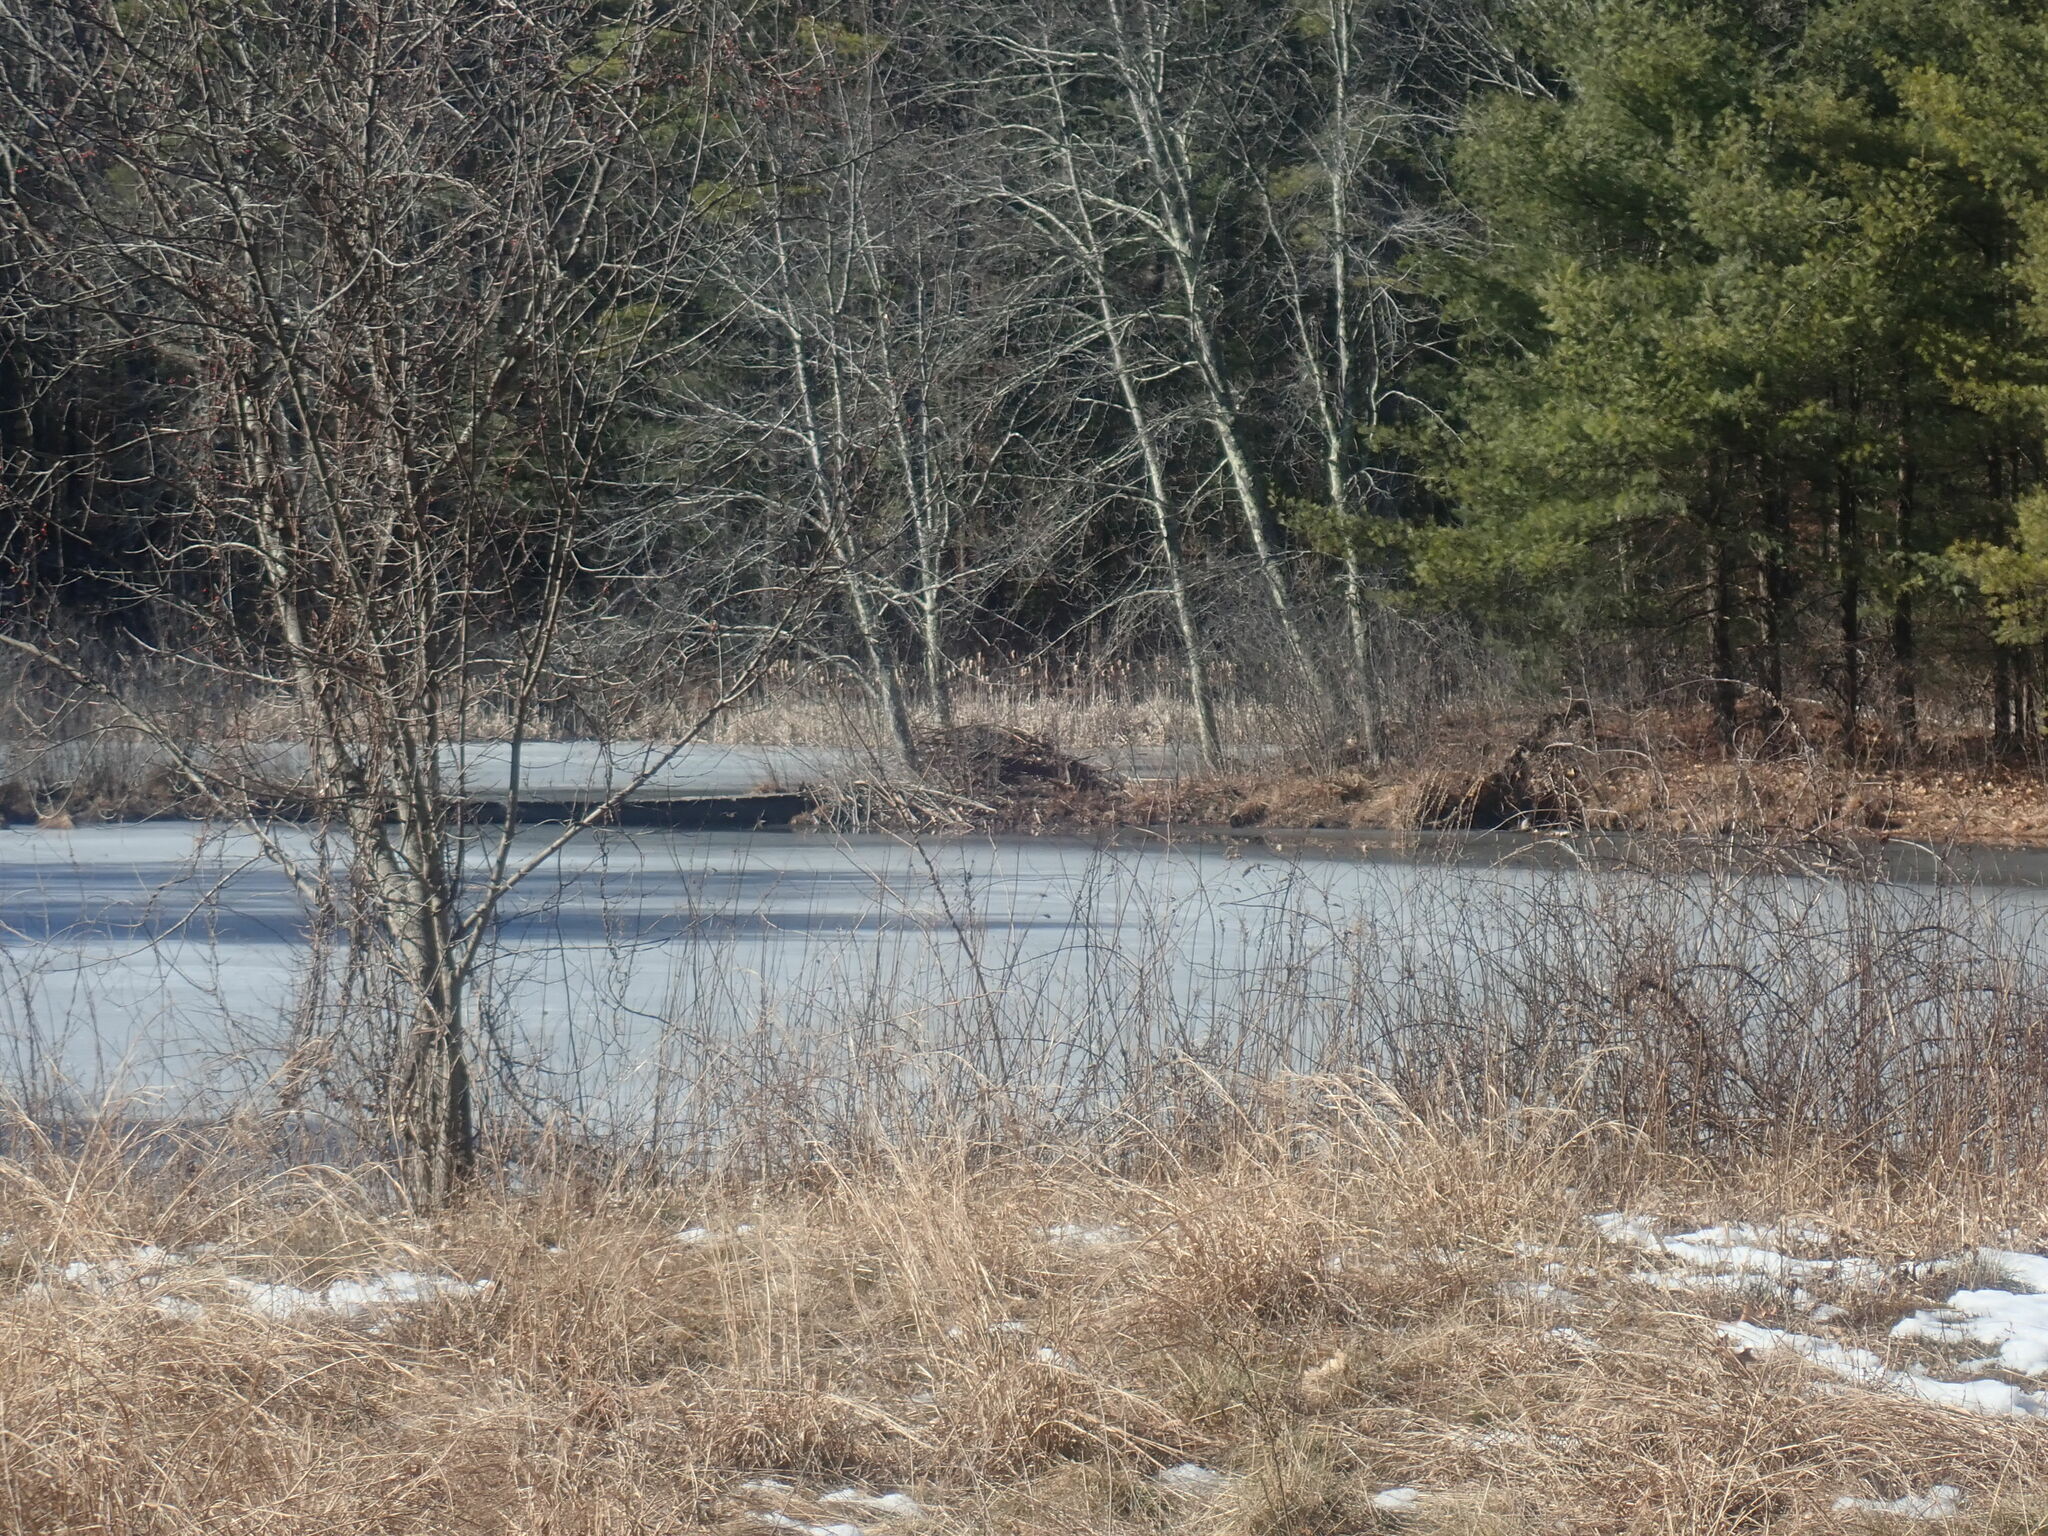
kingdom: Animalia
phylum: Chordata
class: Mammalia
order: Rodentia
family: Castoridae
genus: Castor
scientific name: Castor canadensis
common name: American beaver
